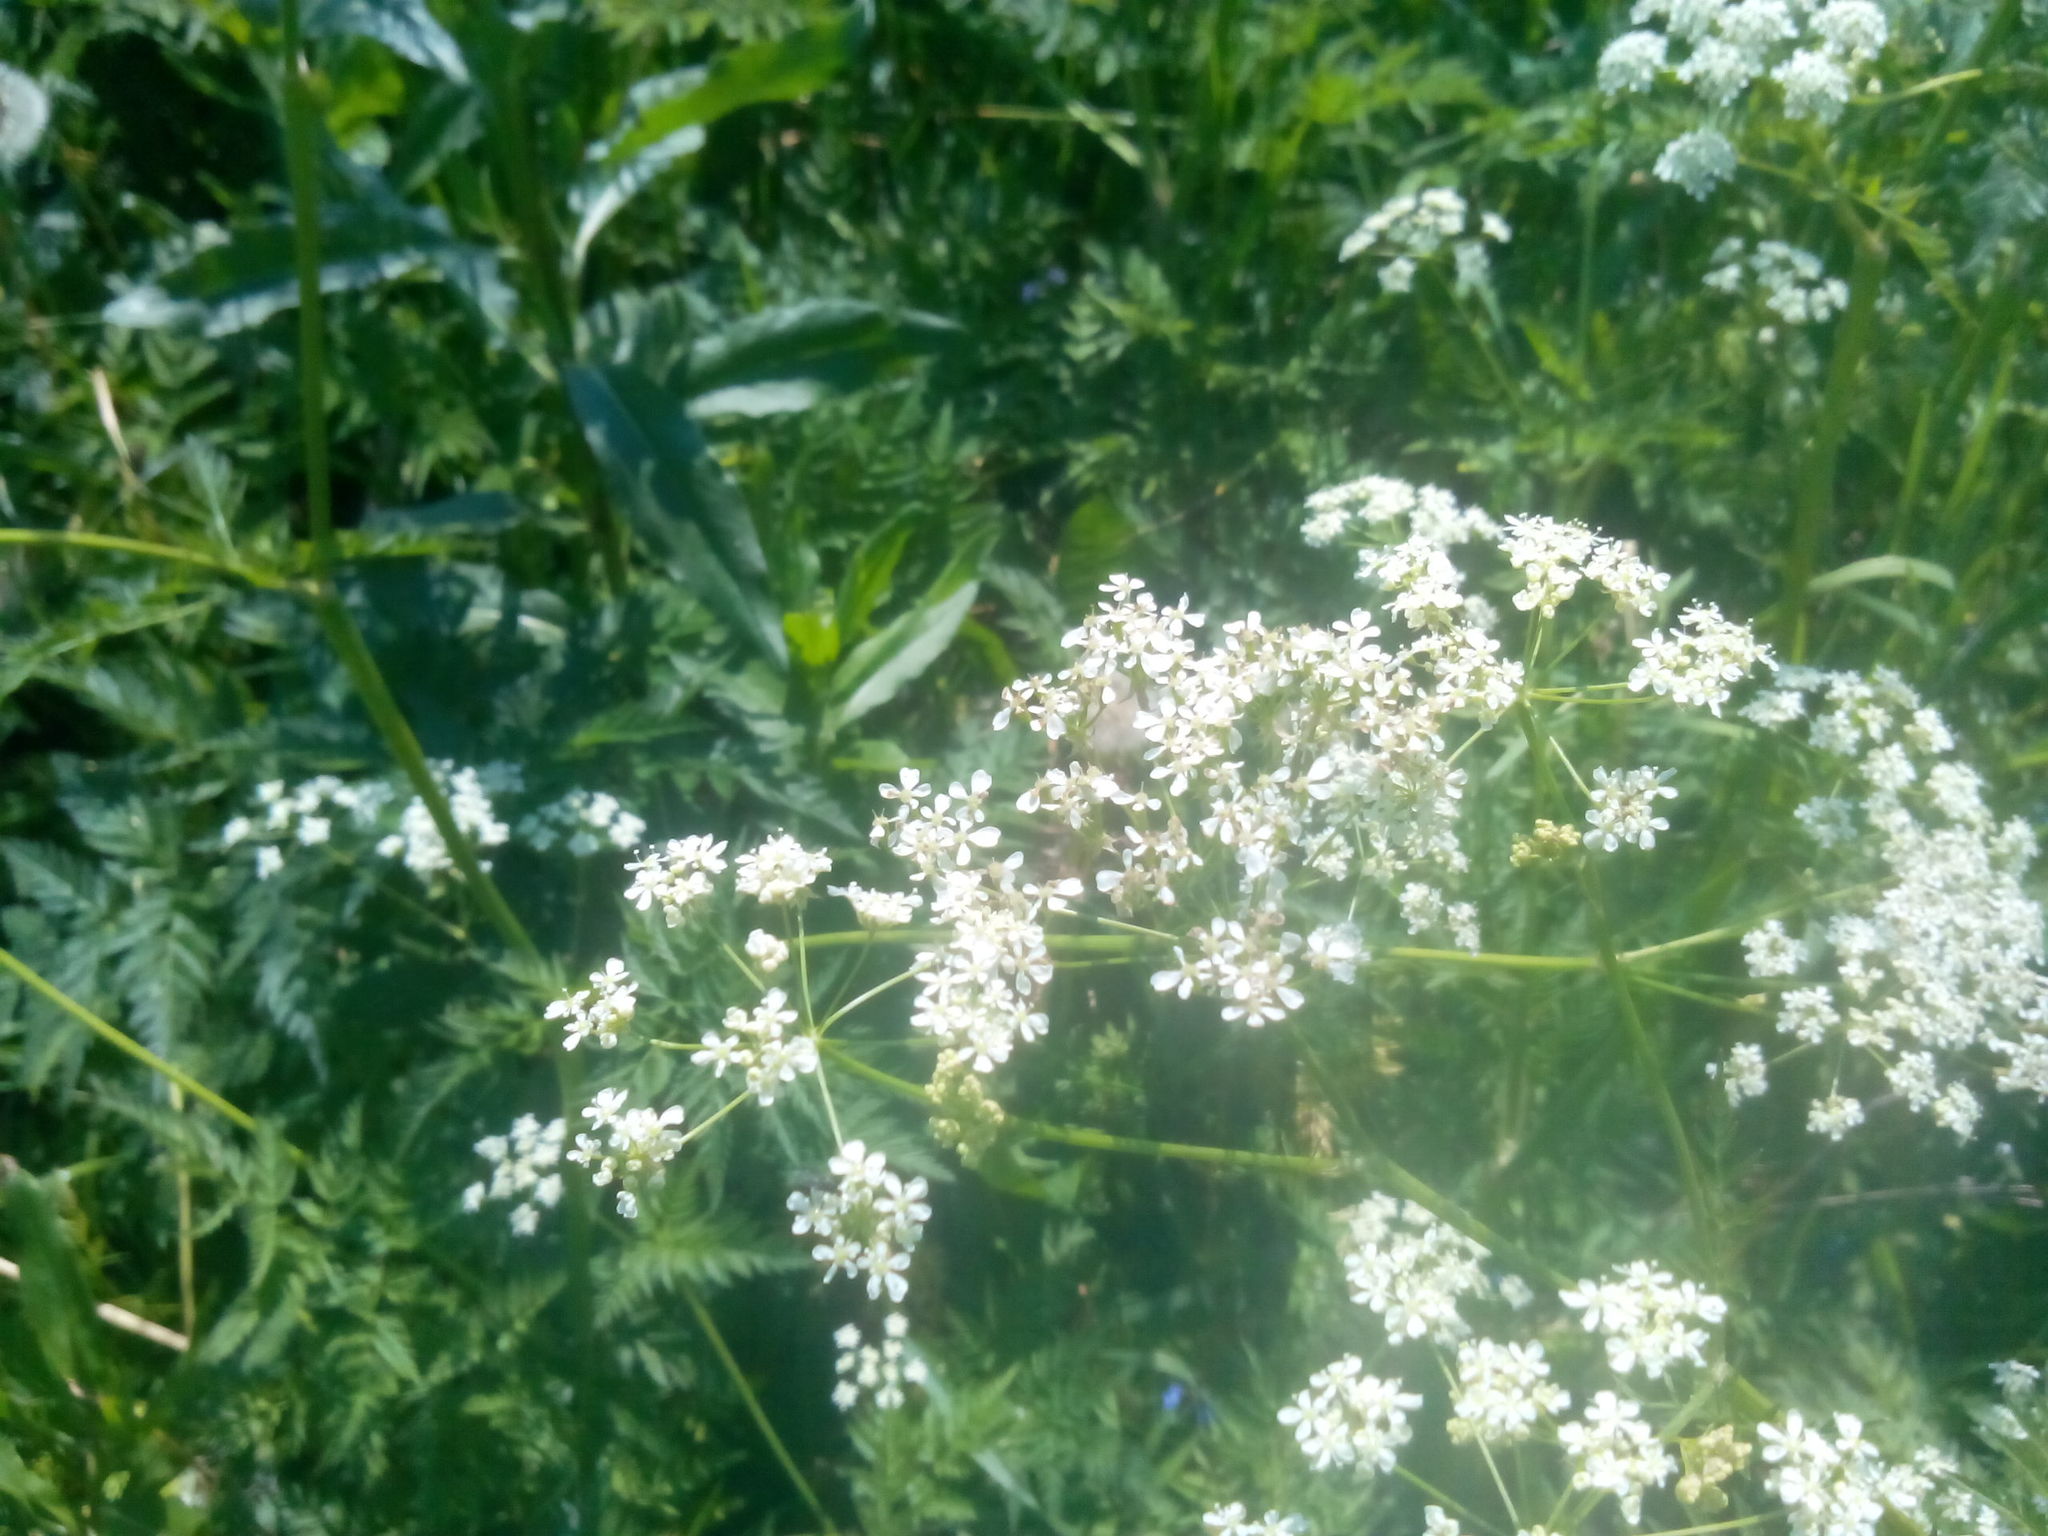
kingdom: Plantae
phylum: Tracheophyta
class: Magnoliopsida
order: Apiales
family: Apiaceae
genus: Anthriscus
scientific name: Anthriscus sylvestris
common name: Cow parsley
